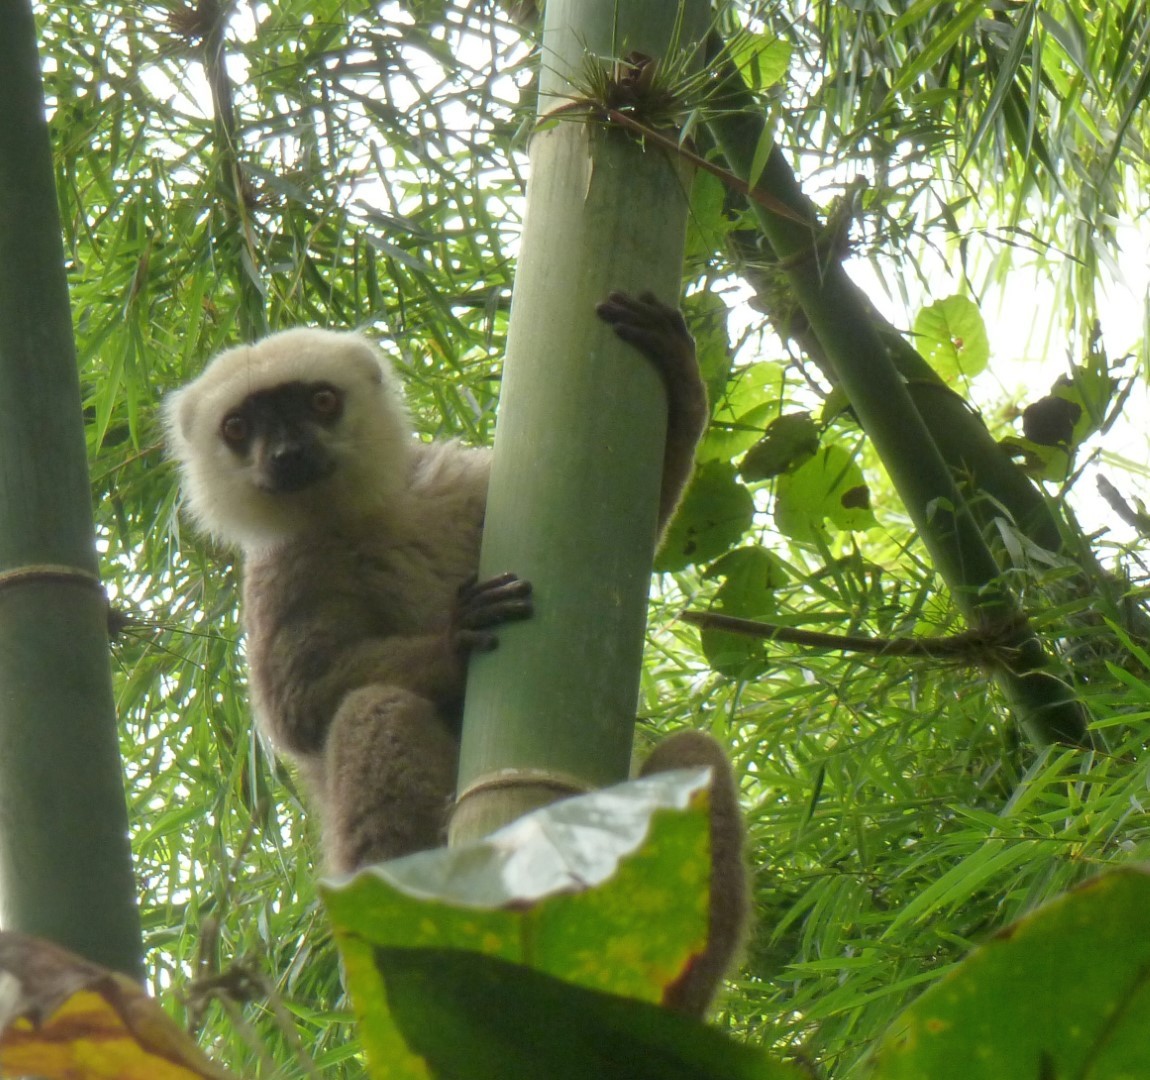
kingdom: Animalia
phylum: Chordata
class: Mammalia
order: Primates
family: Lemuridae
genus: Eulemur
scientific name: Eulemur albifrons
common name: White-headed lemur
